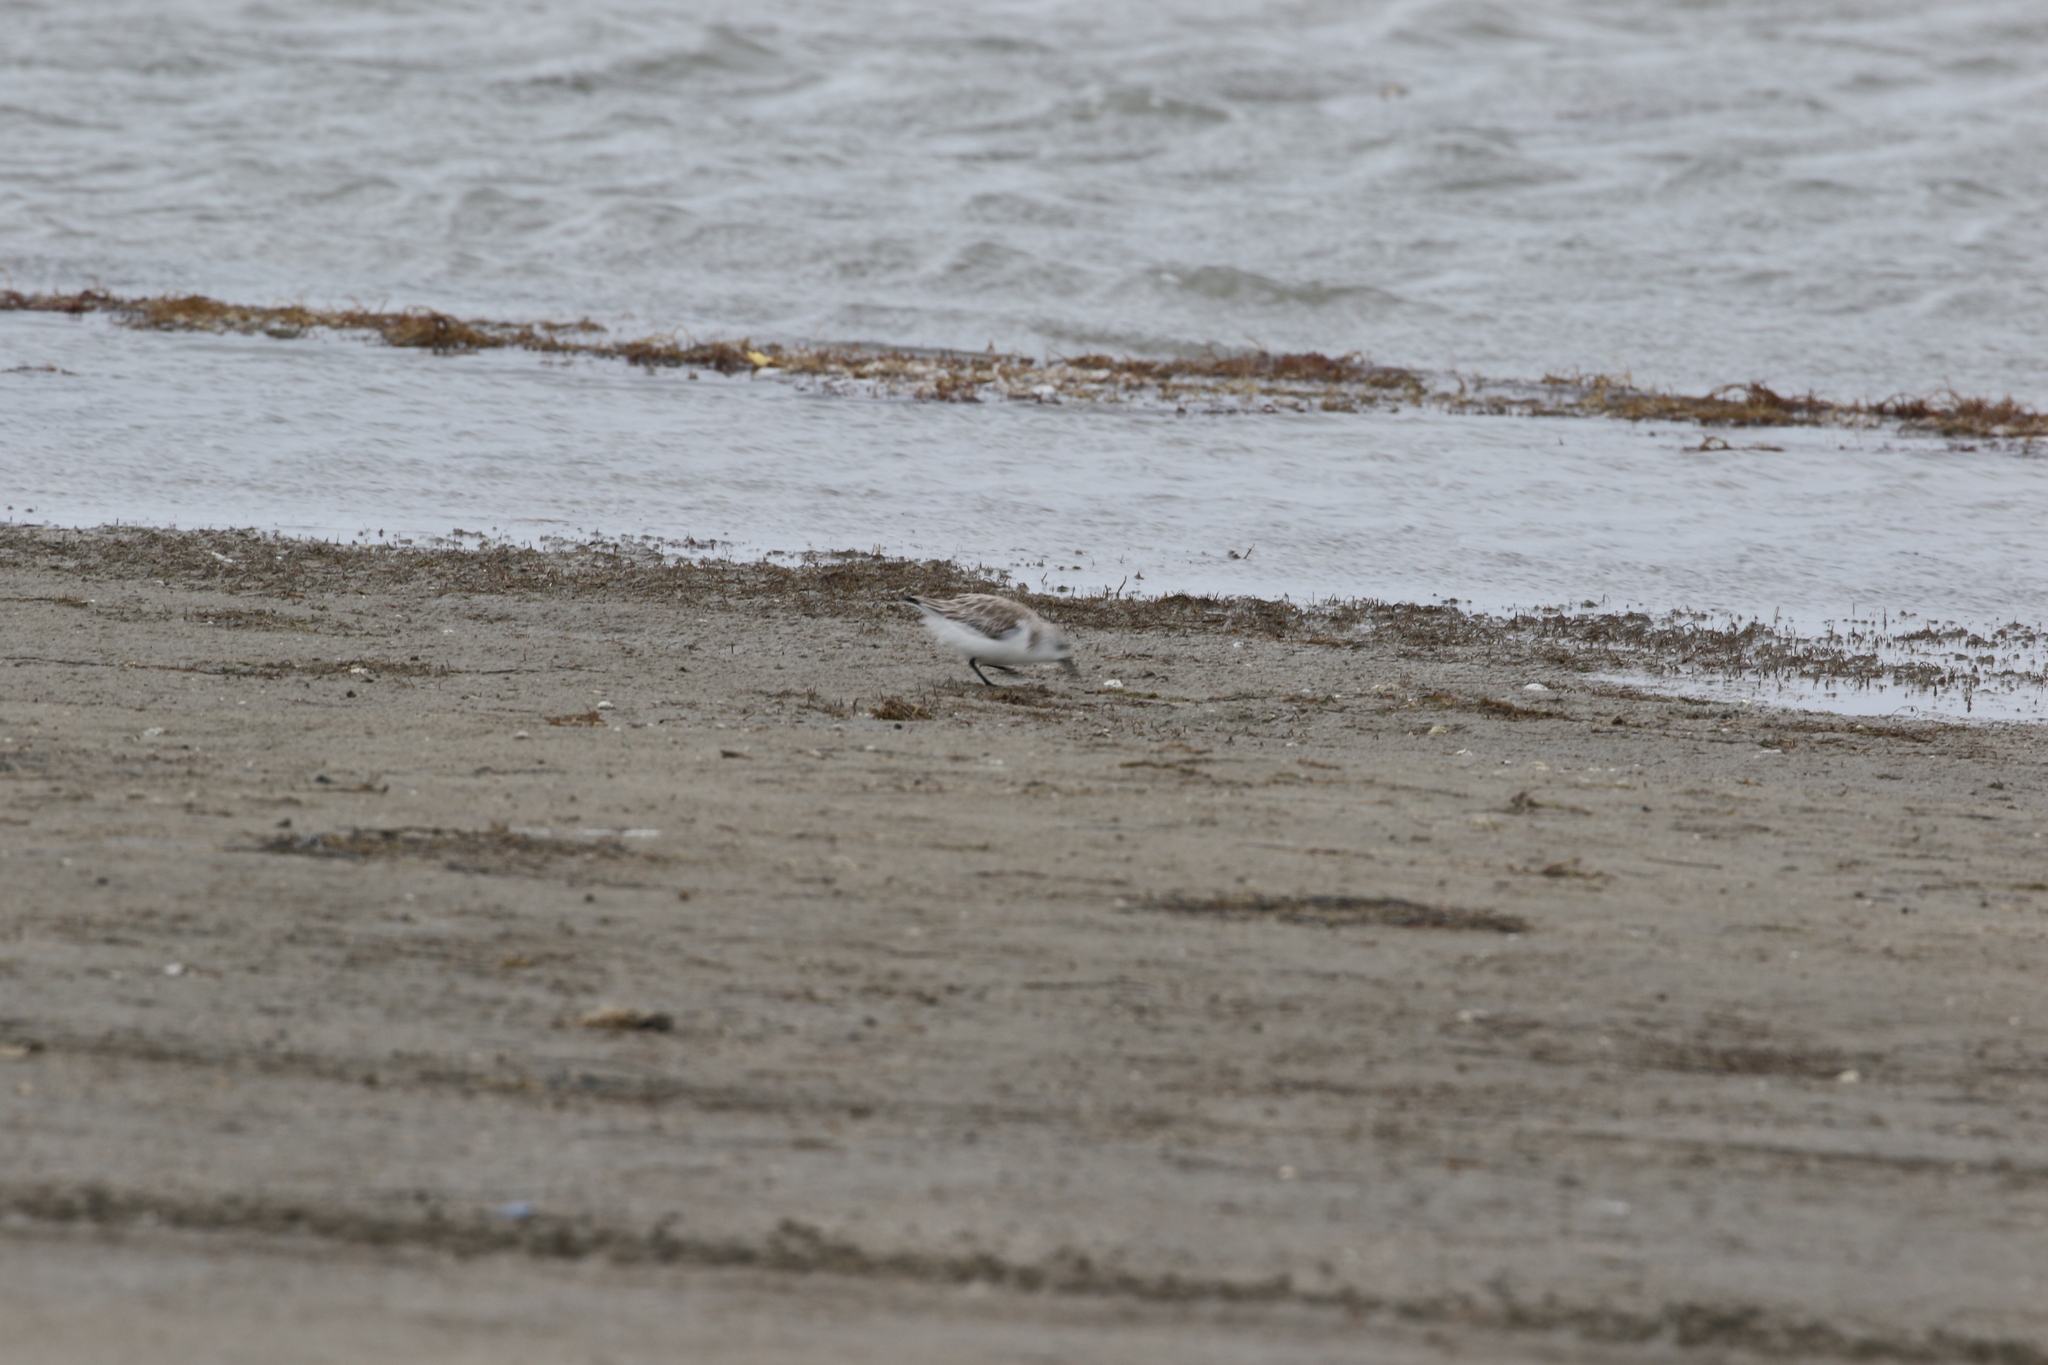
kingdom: Animalia
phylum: Chordata
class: Aves
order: Charadriiformes
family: Scolopacidae
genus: Calidris
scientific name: Calidris alba
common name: Sanderling
